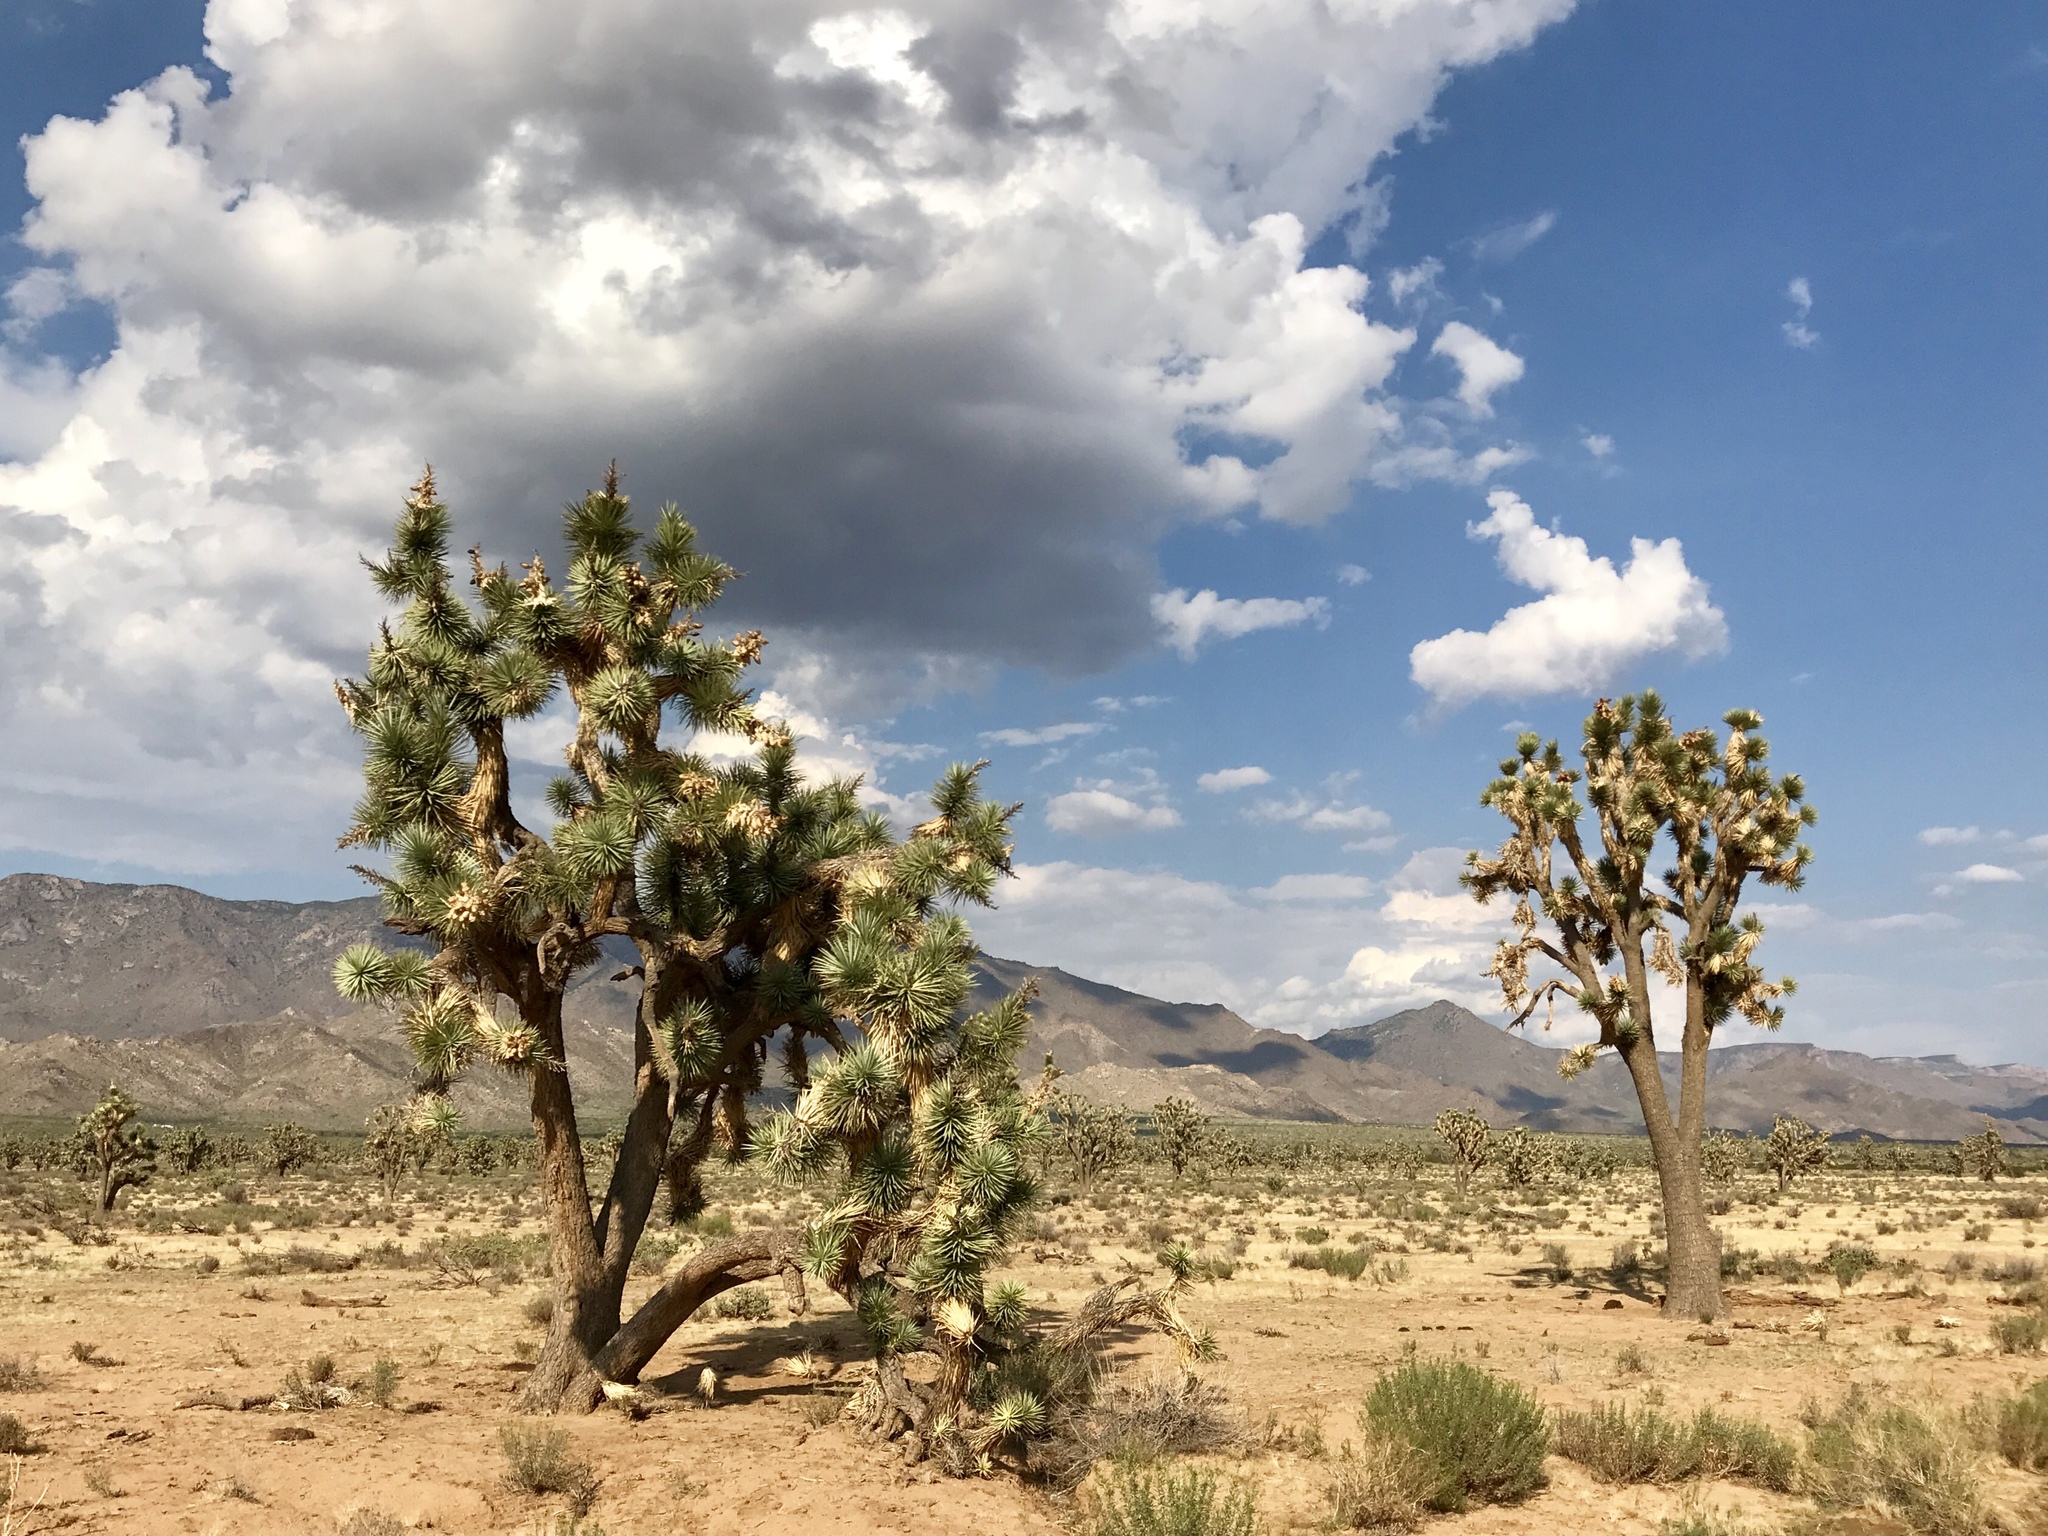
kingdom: Plantae
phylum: Tracheophyta
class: Liliopsida
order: Asparagales
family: Asparagaceae
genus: Yucca
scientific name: Yucca brevifolia
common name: Joshua tree
